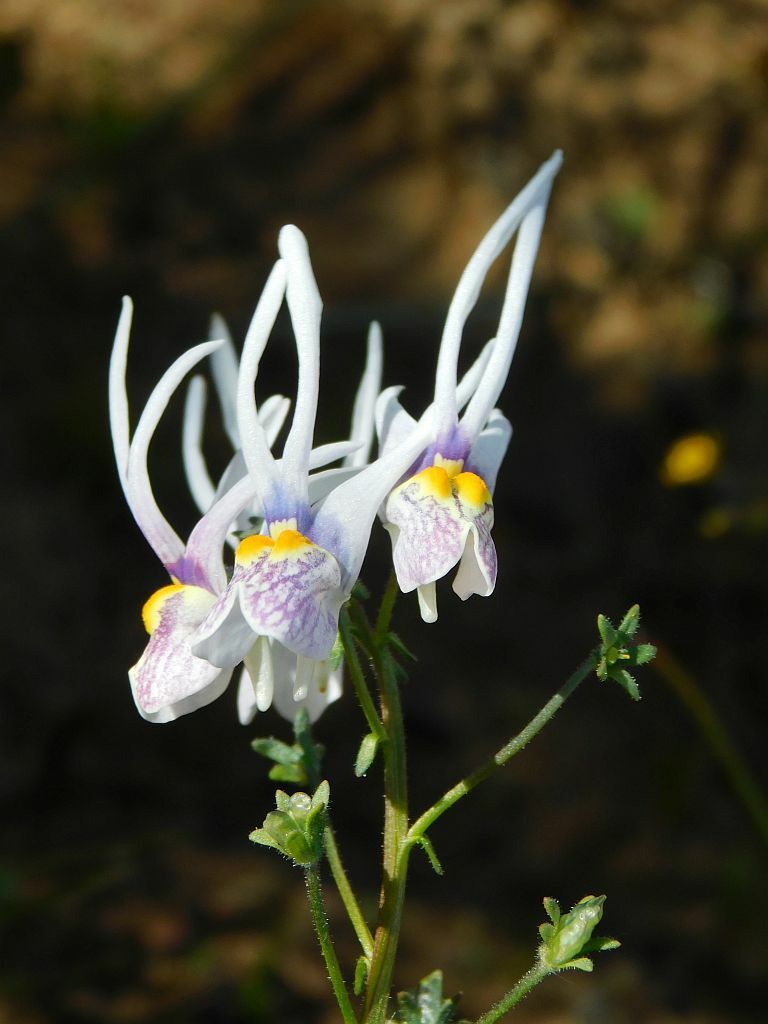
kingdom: Plantae
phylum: Tracheophyta
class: Magnoliopsida
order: Lamiales
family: Scrophulariaceae
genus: Nemesia
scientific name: Nemesia cheiranthus
